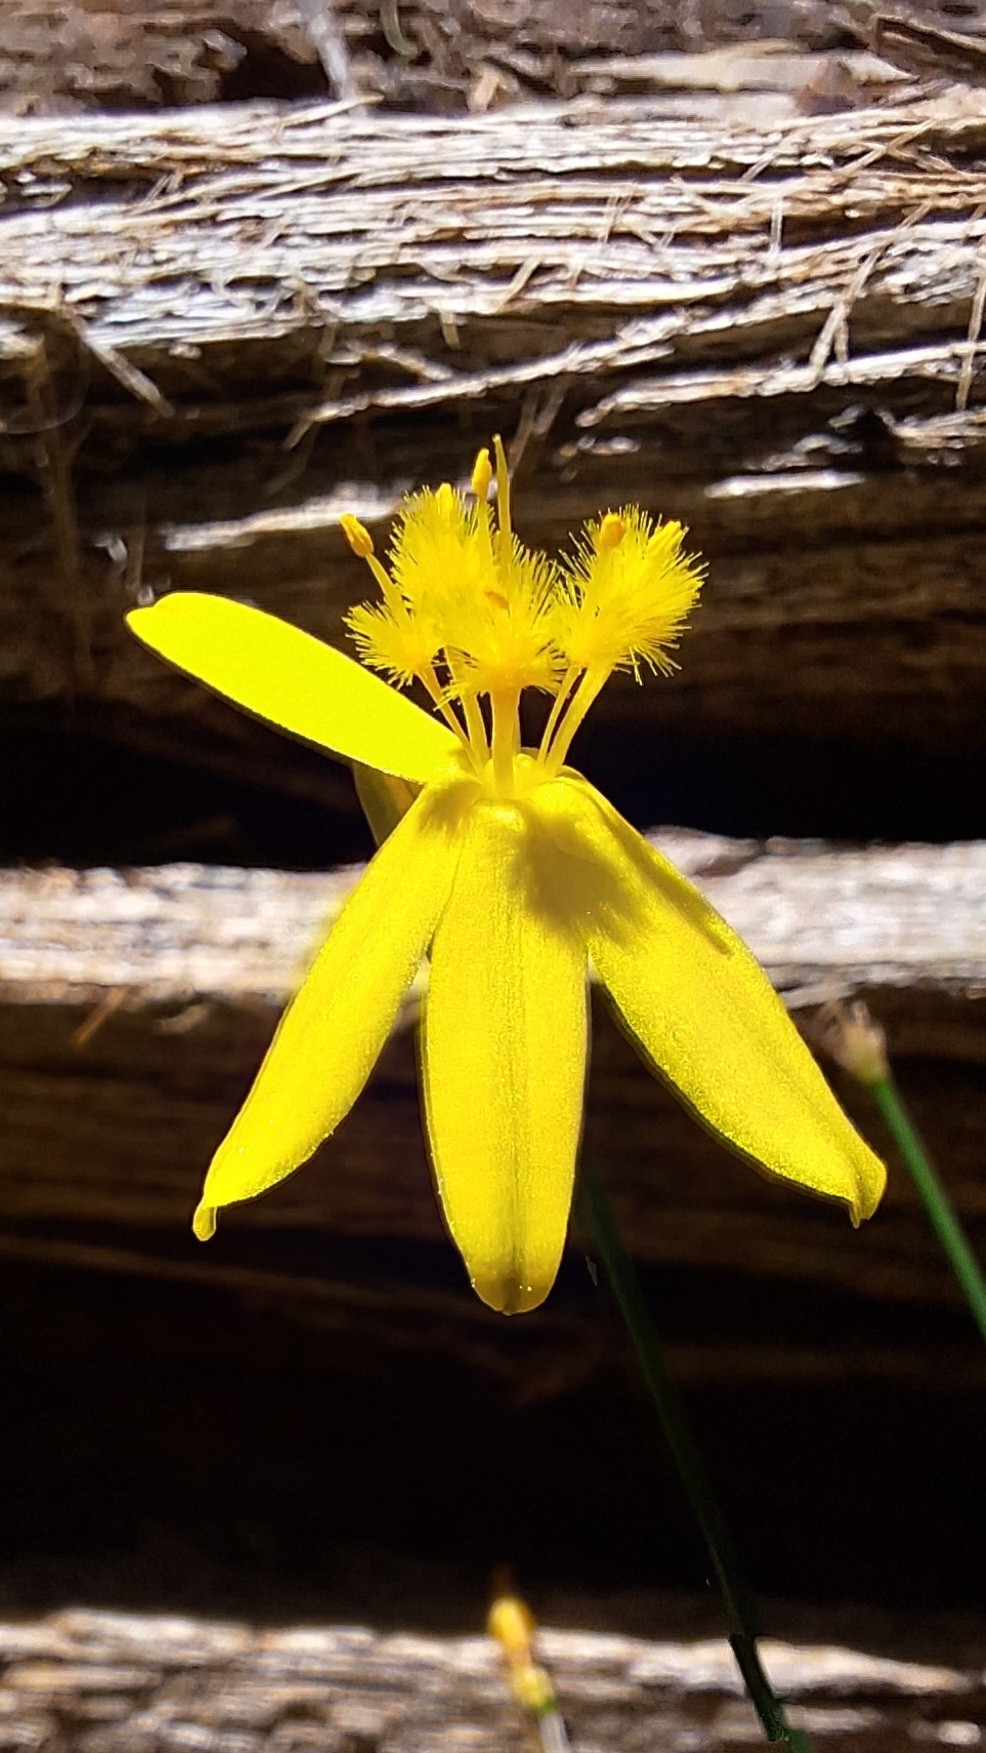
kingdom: Plantae
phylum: Tracheophyta
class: Liliopsida
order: Asparagales
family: Asphodelaceae
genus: Tricoryne
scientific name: Tricoryne elatior
